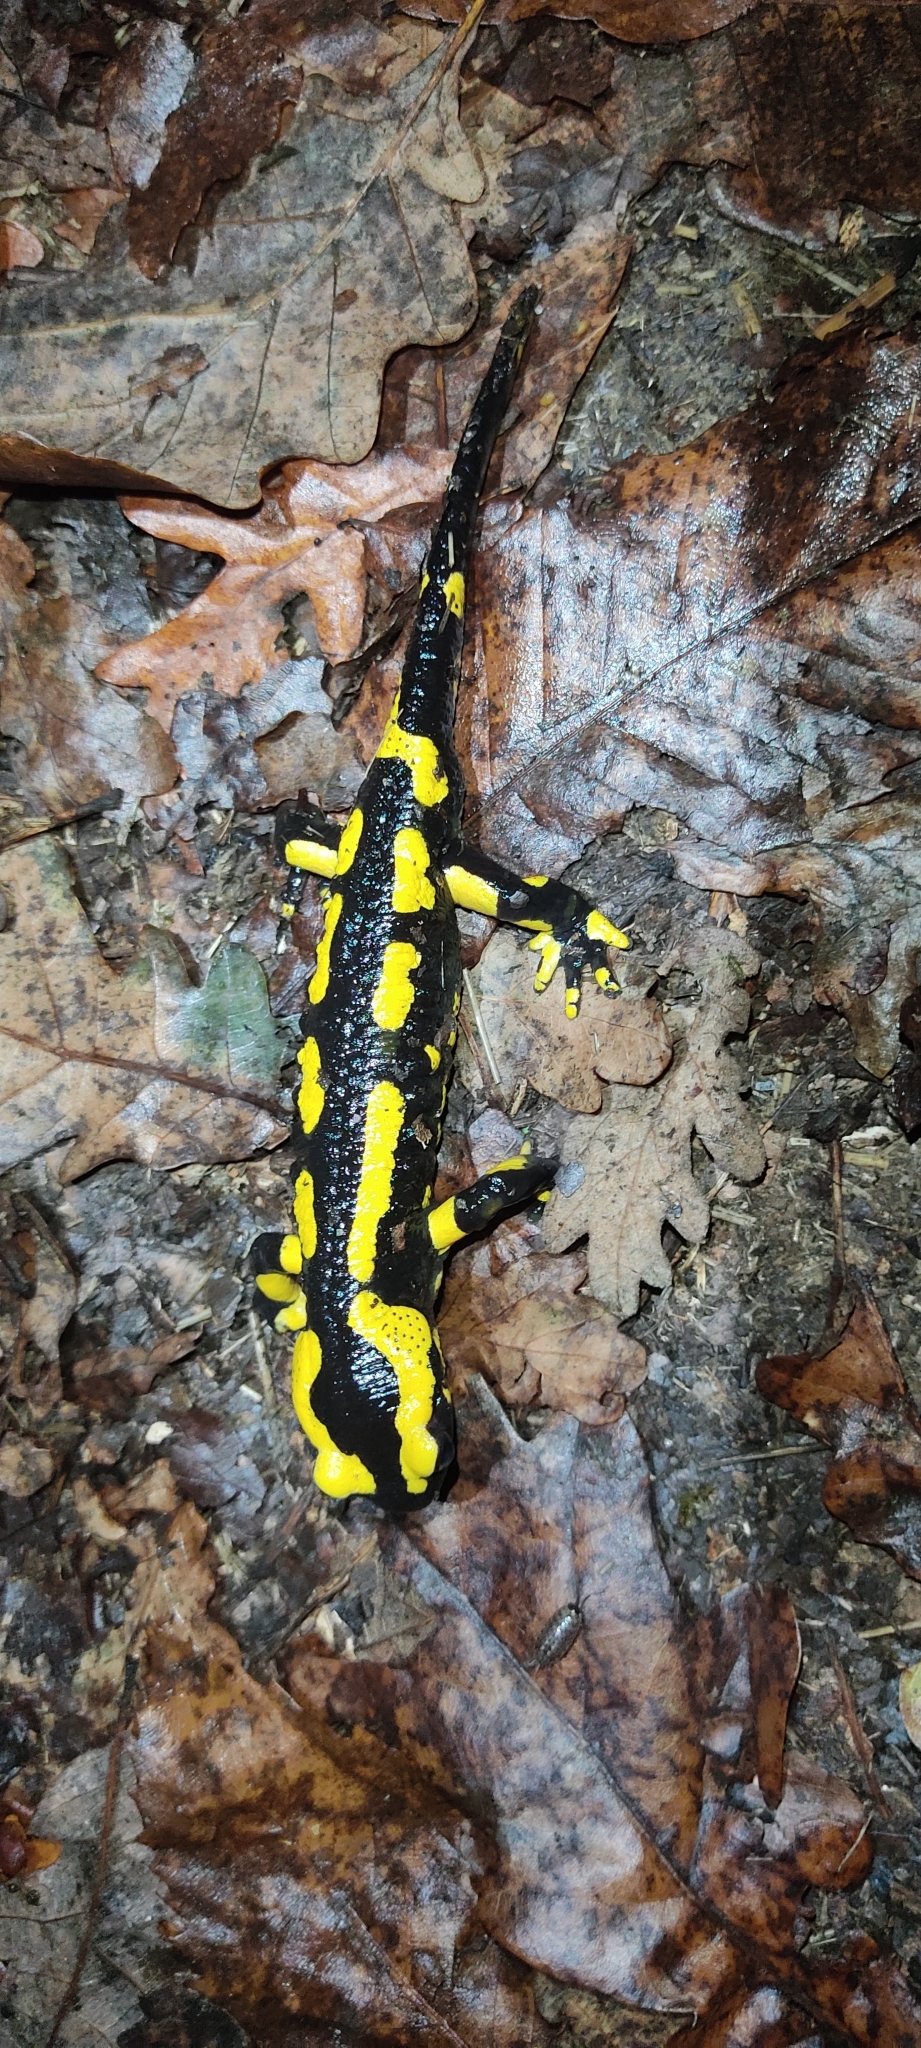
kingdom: Animalia
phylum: Chordata
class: Amphibia
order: Caudata
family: Salamandridae
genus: Salamandra
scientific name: Salamandra salamandra
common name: Fire salamander
